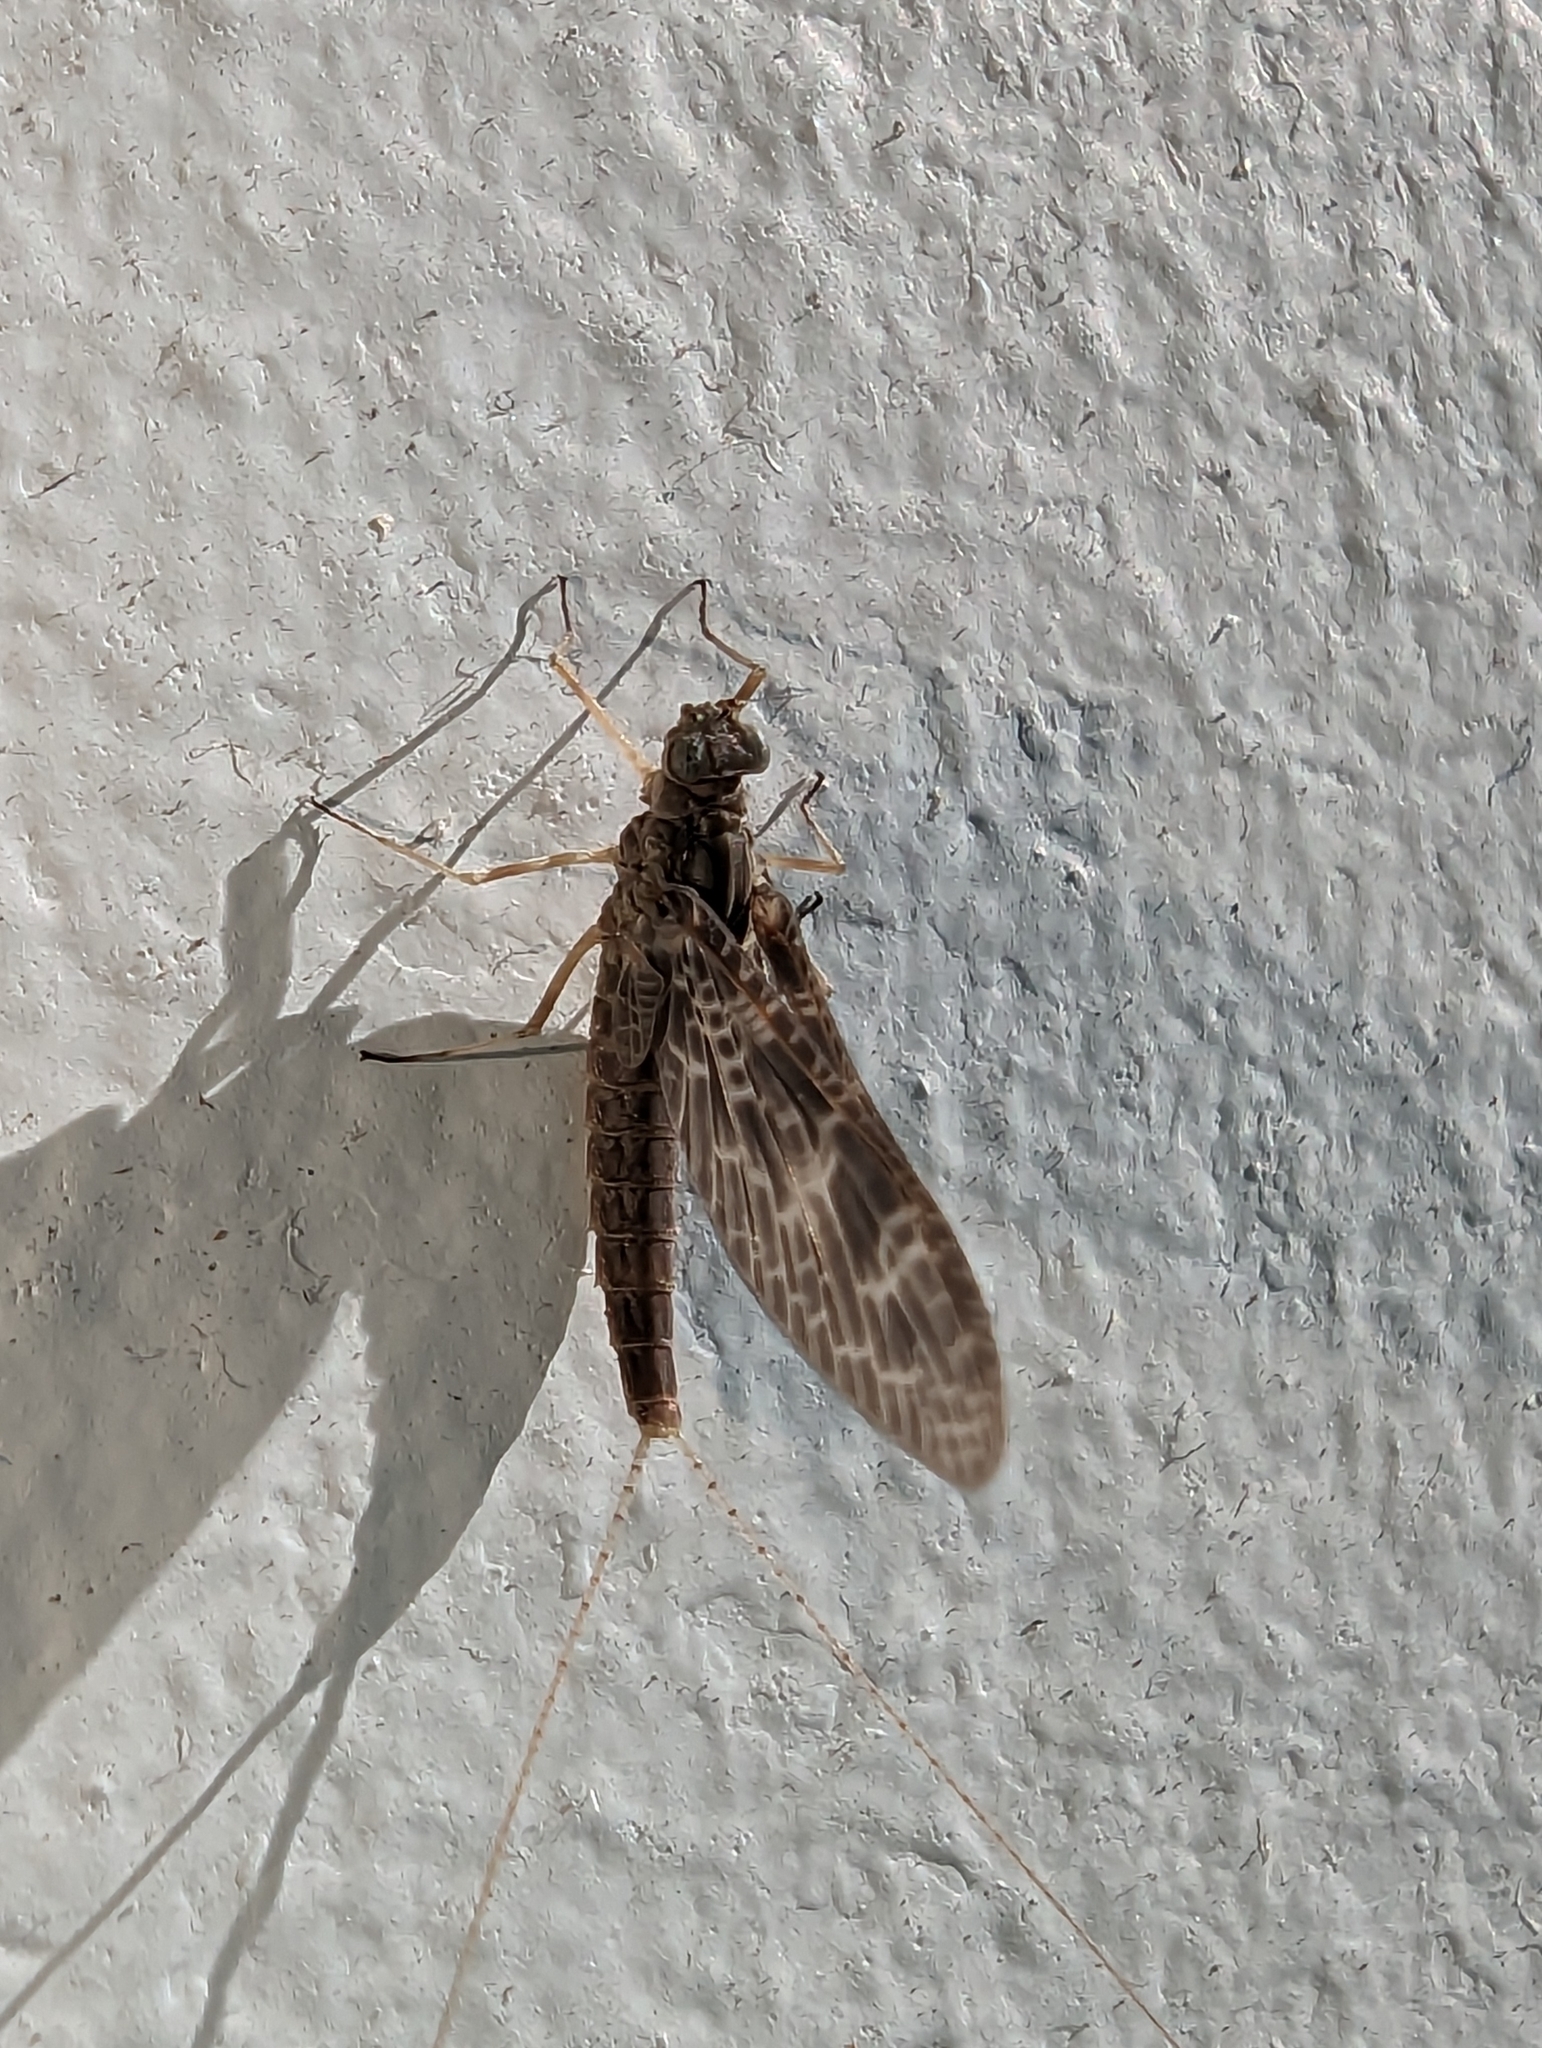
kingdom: Animalia
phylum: Arthropoda
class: Insecta
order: Ephemeroptera
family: Baetidae
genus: Callibaetis
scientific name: Callibaetis ferrugineus
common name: Red speckled dun
